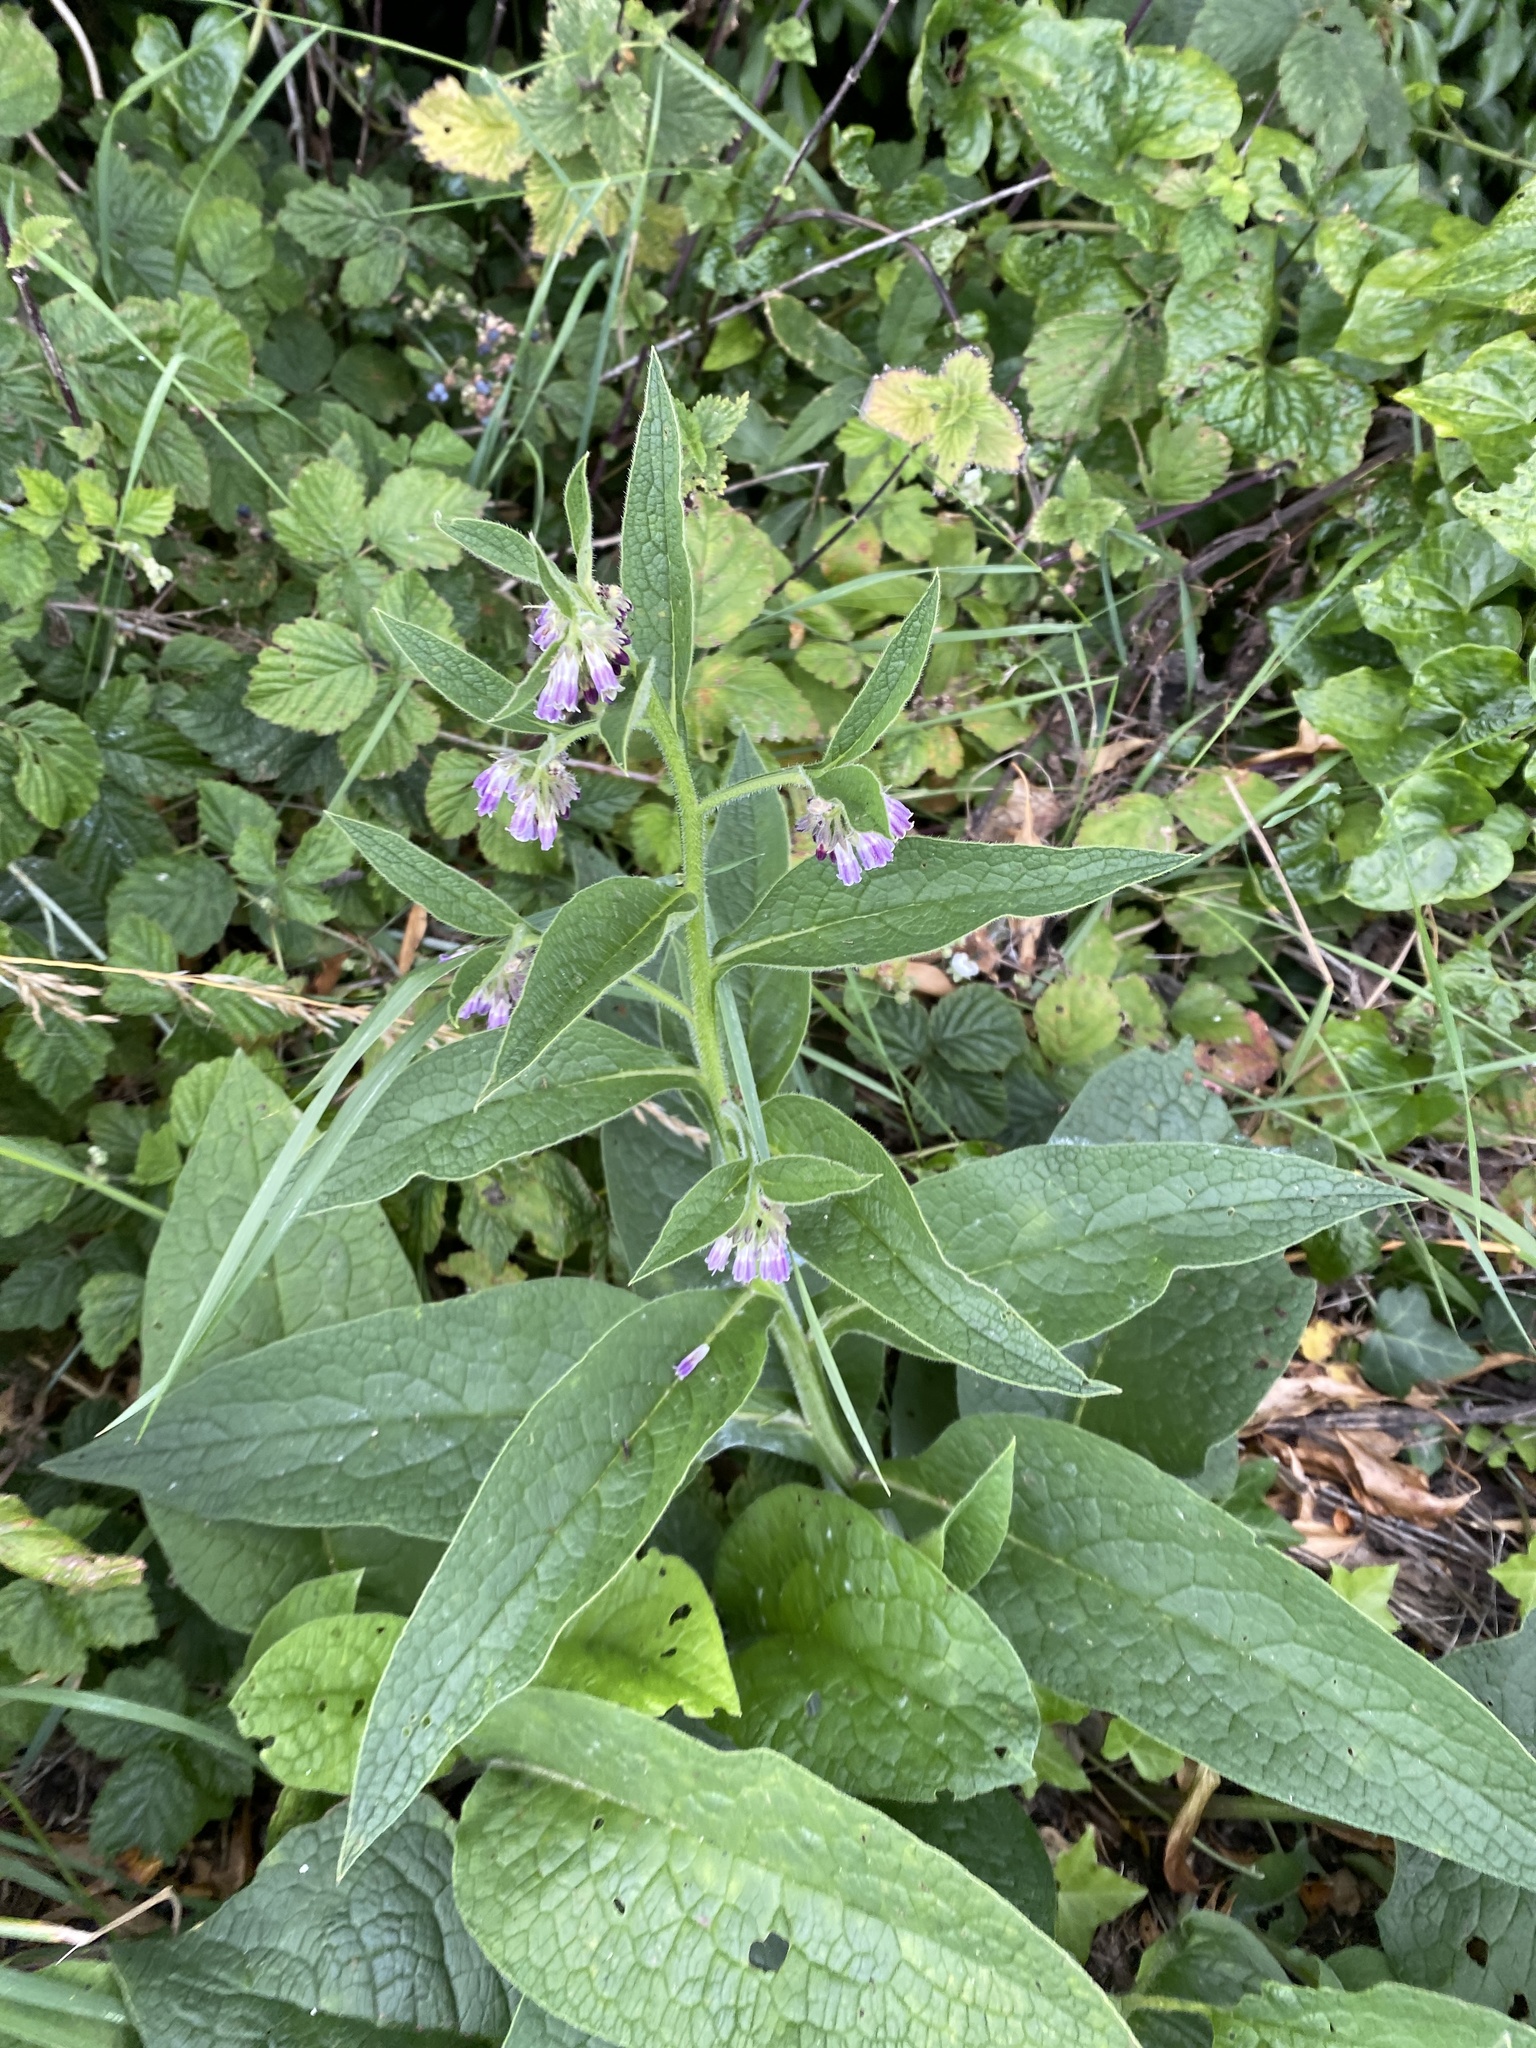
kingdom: Plantae
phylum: Tracheophyta
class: Magnoliopsida
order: Boraginales
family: Boraginaceae
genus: Symphytum
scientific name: Symphytum officinale
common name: Common comfrey
